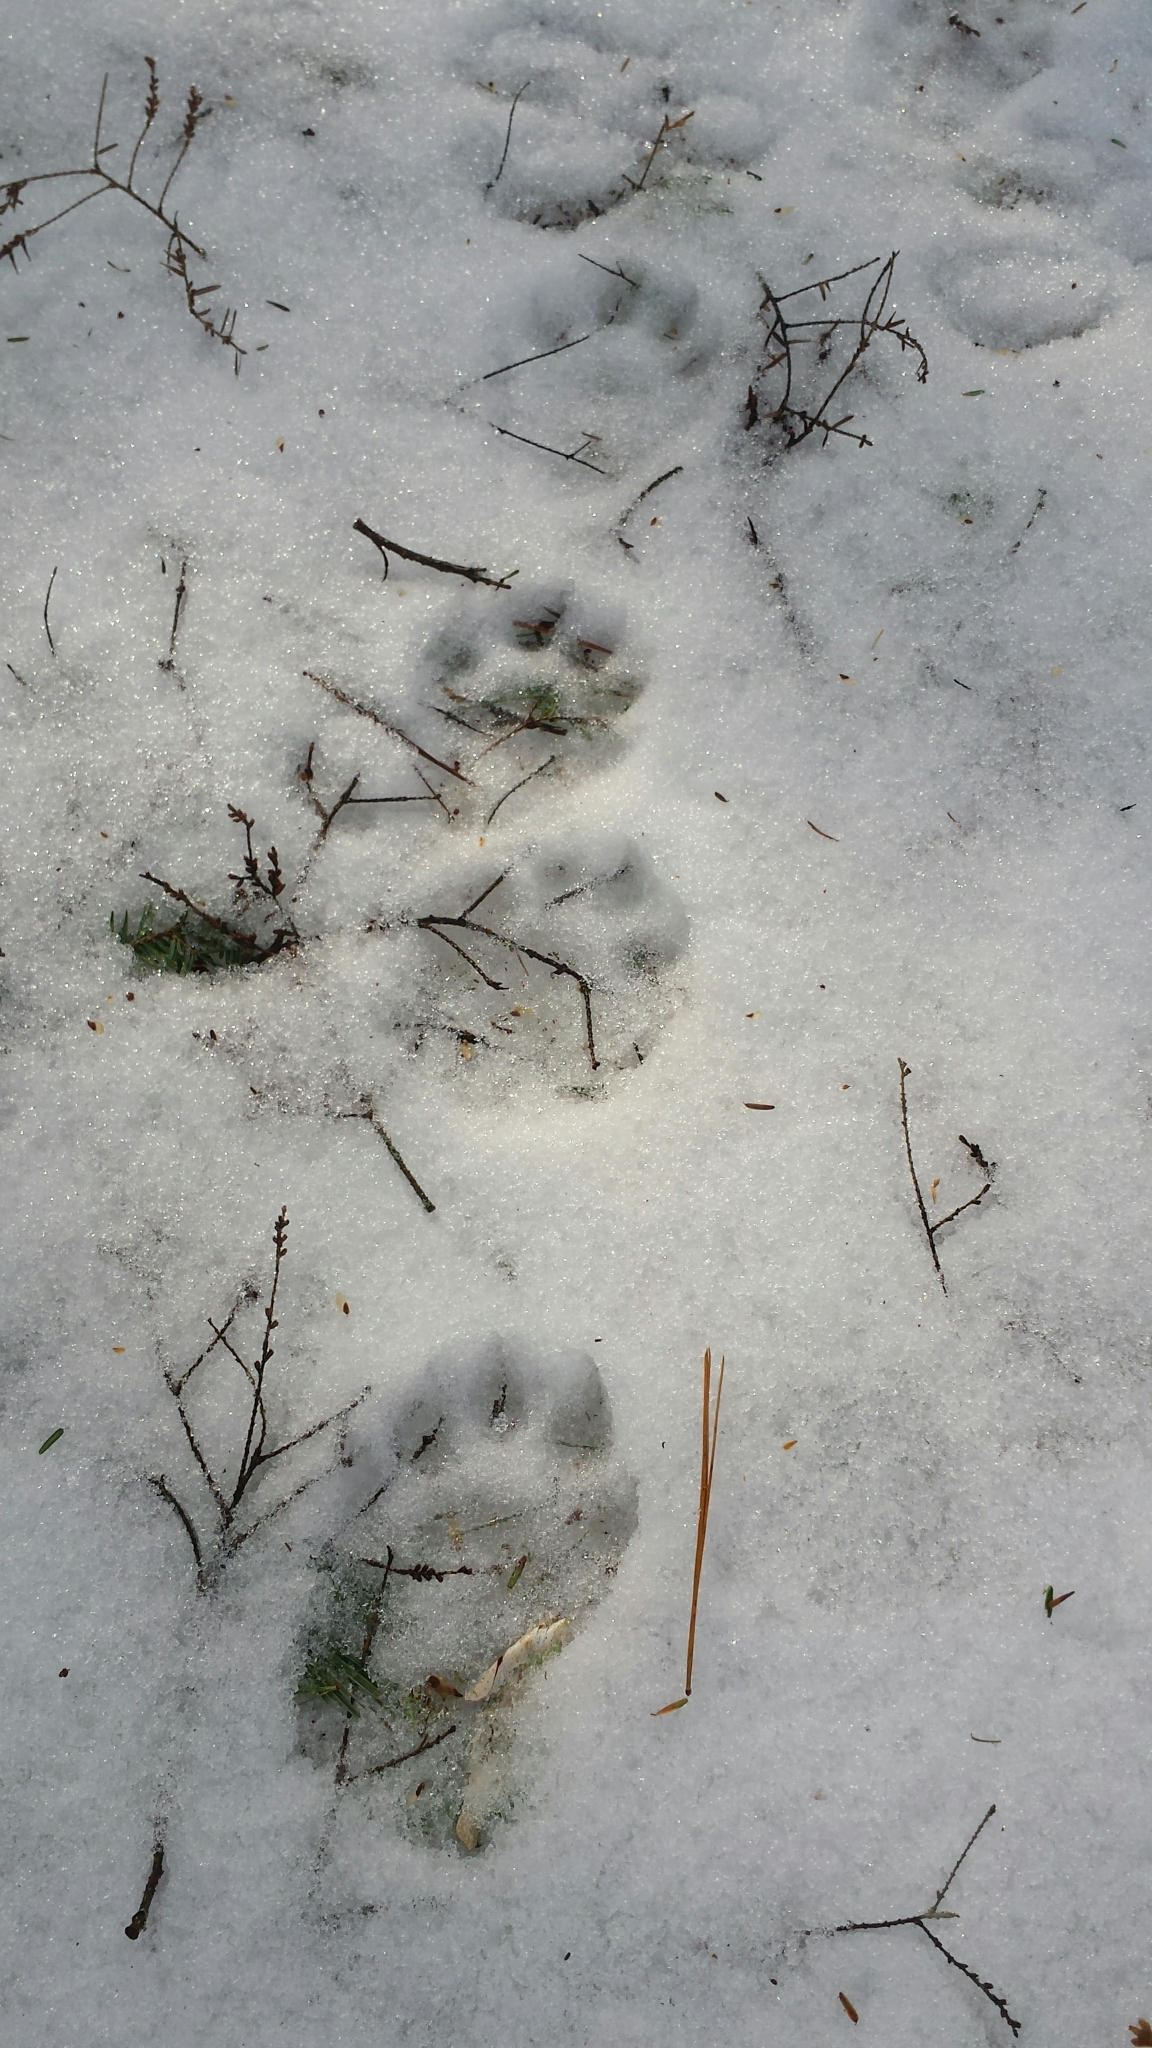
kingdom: Animalia
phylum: Chordata
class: Mammalia
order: Carnivora
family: Mustelidae
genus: Pekania
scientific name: Pekania pennanti
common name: Fisher
